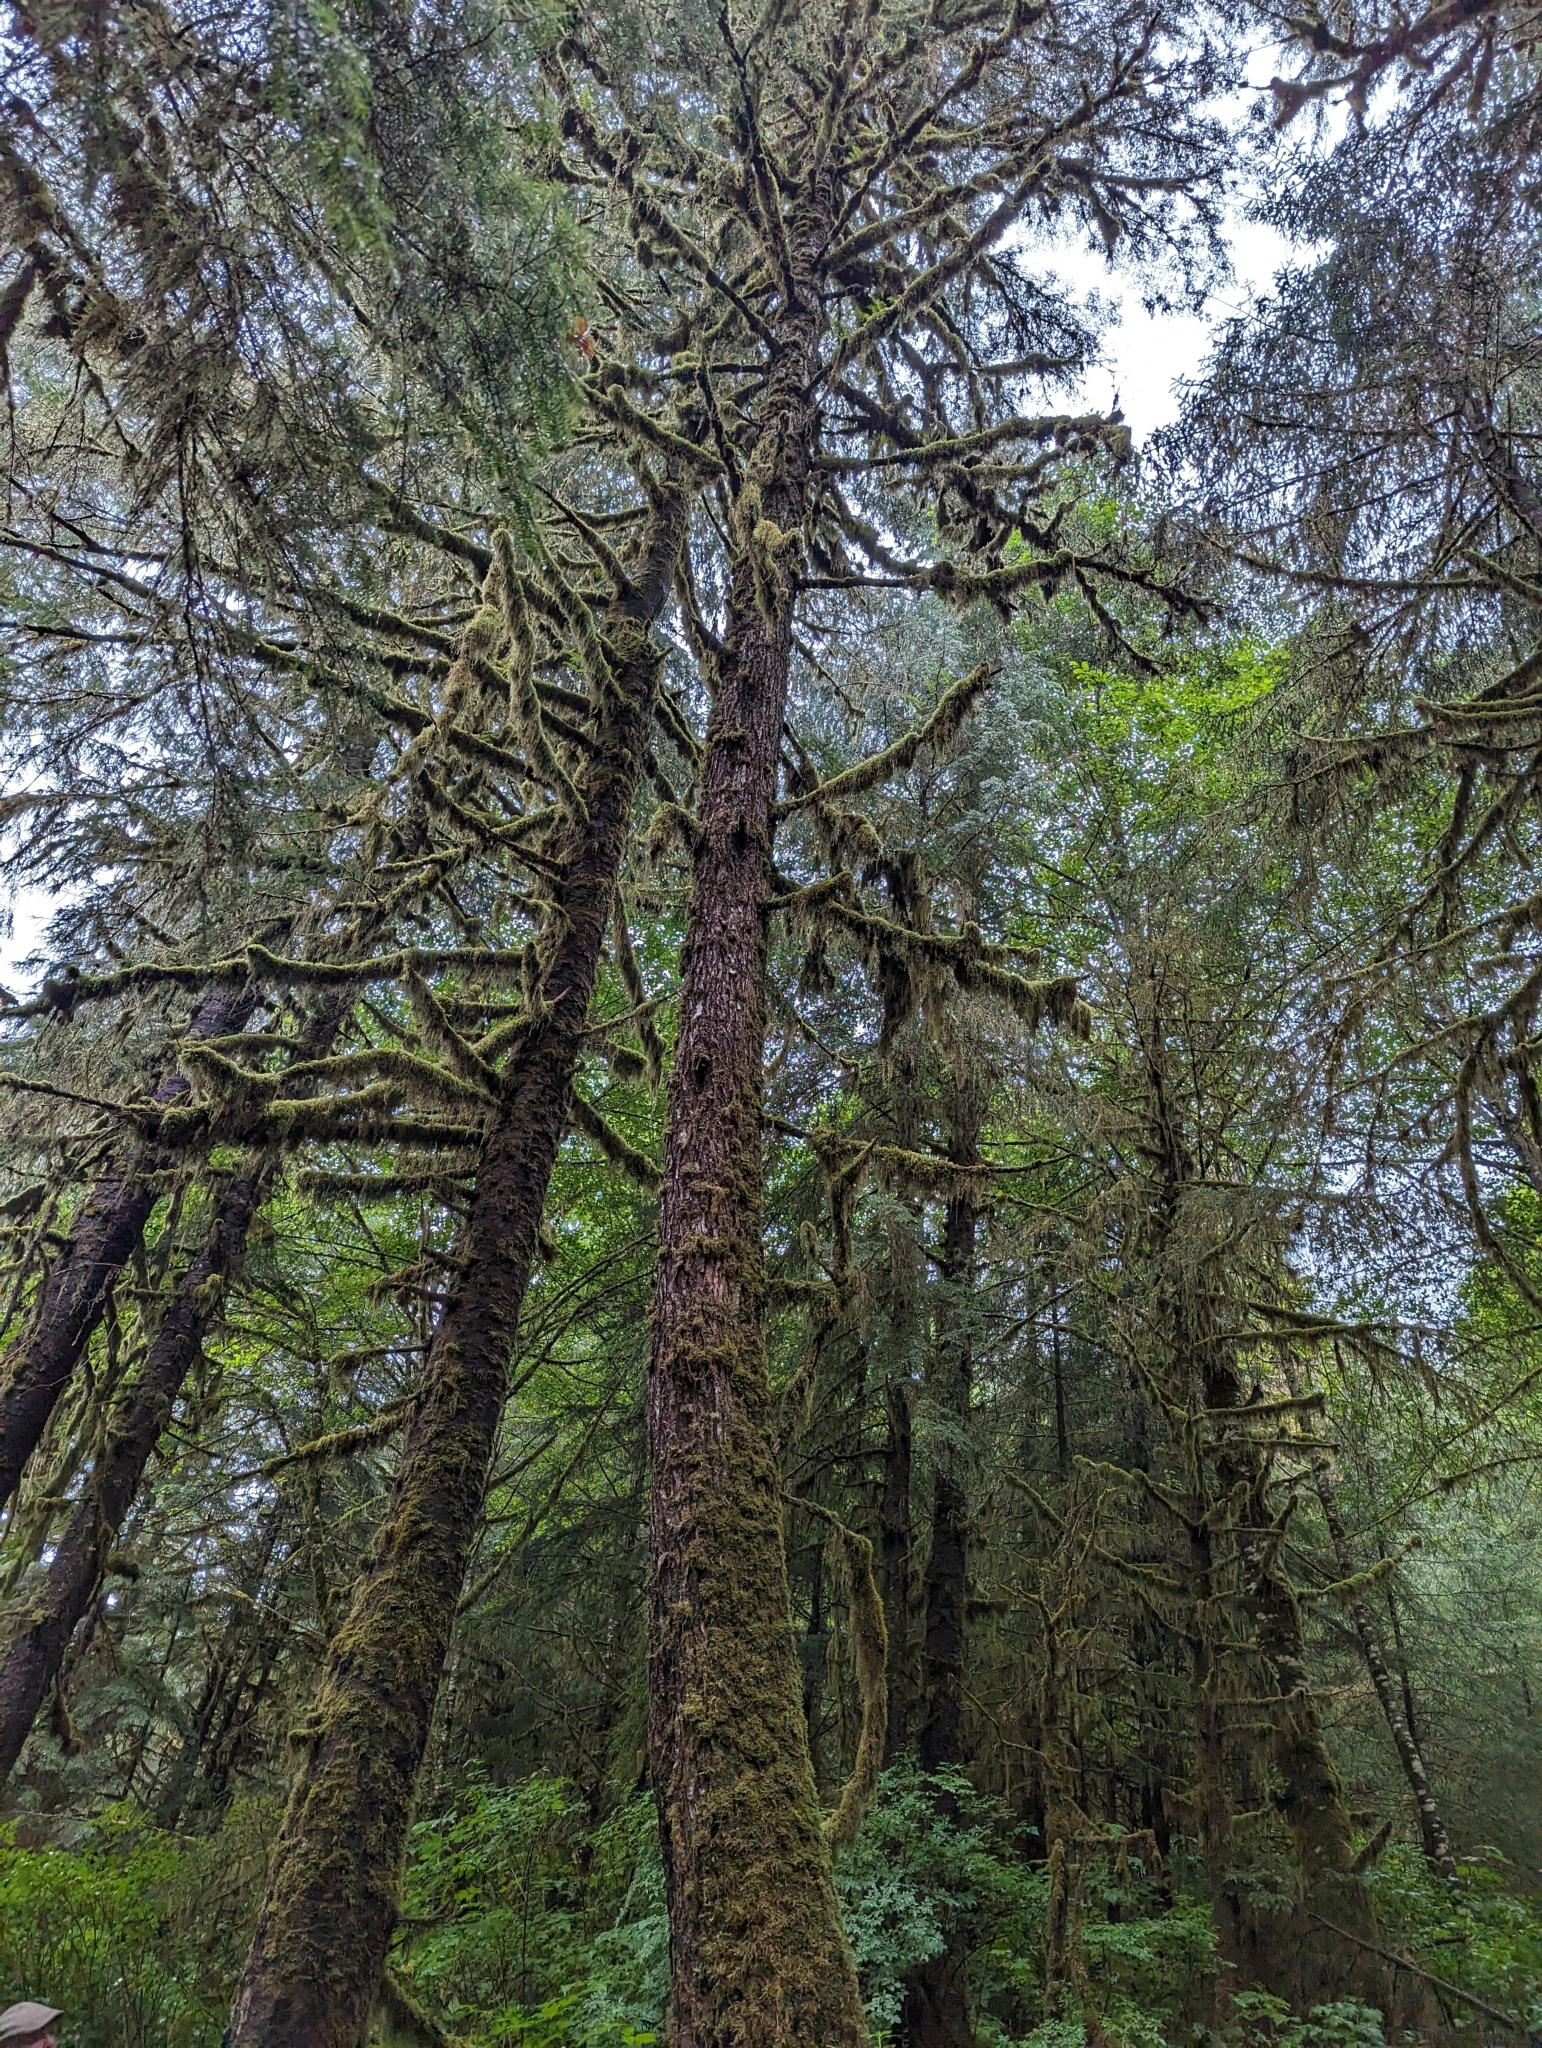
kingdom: Plantae
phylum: Tracheophyta
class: Pinopsida
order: Pinales
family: Pinaceae
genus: Picea
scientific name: Picea sitchensis
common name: Sitka spruce
